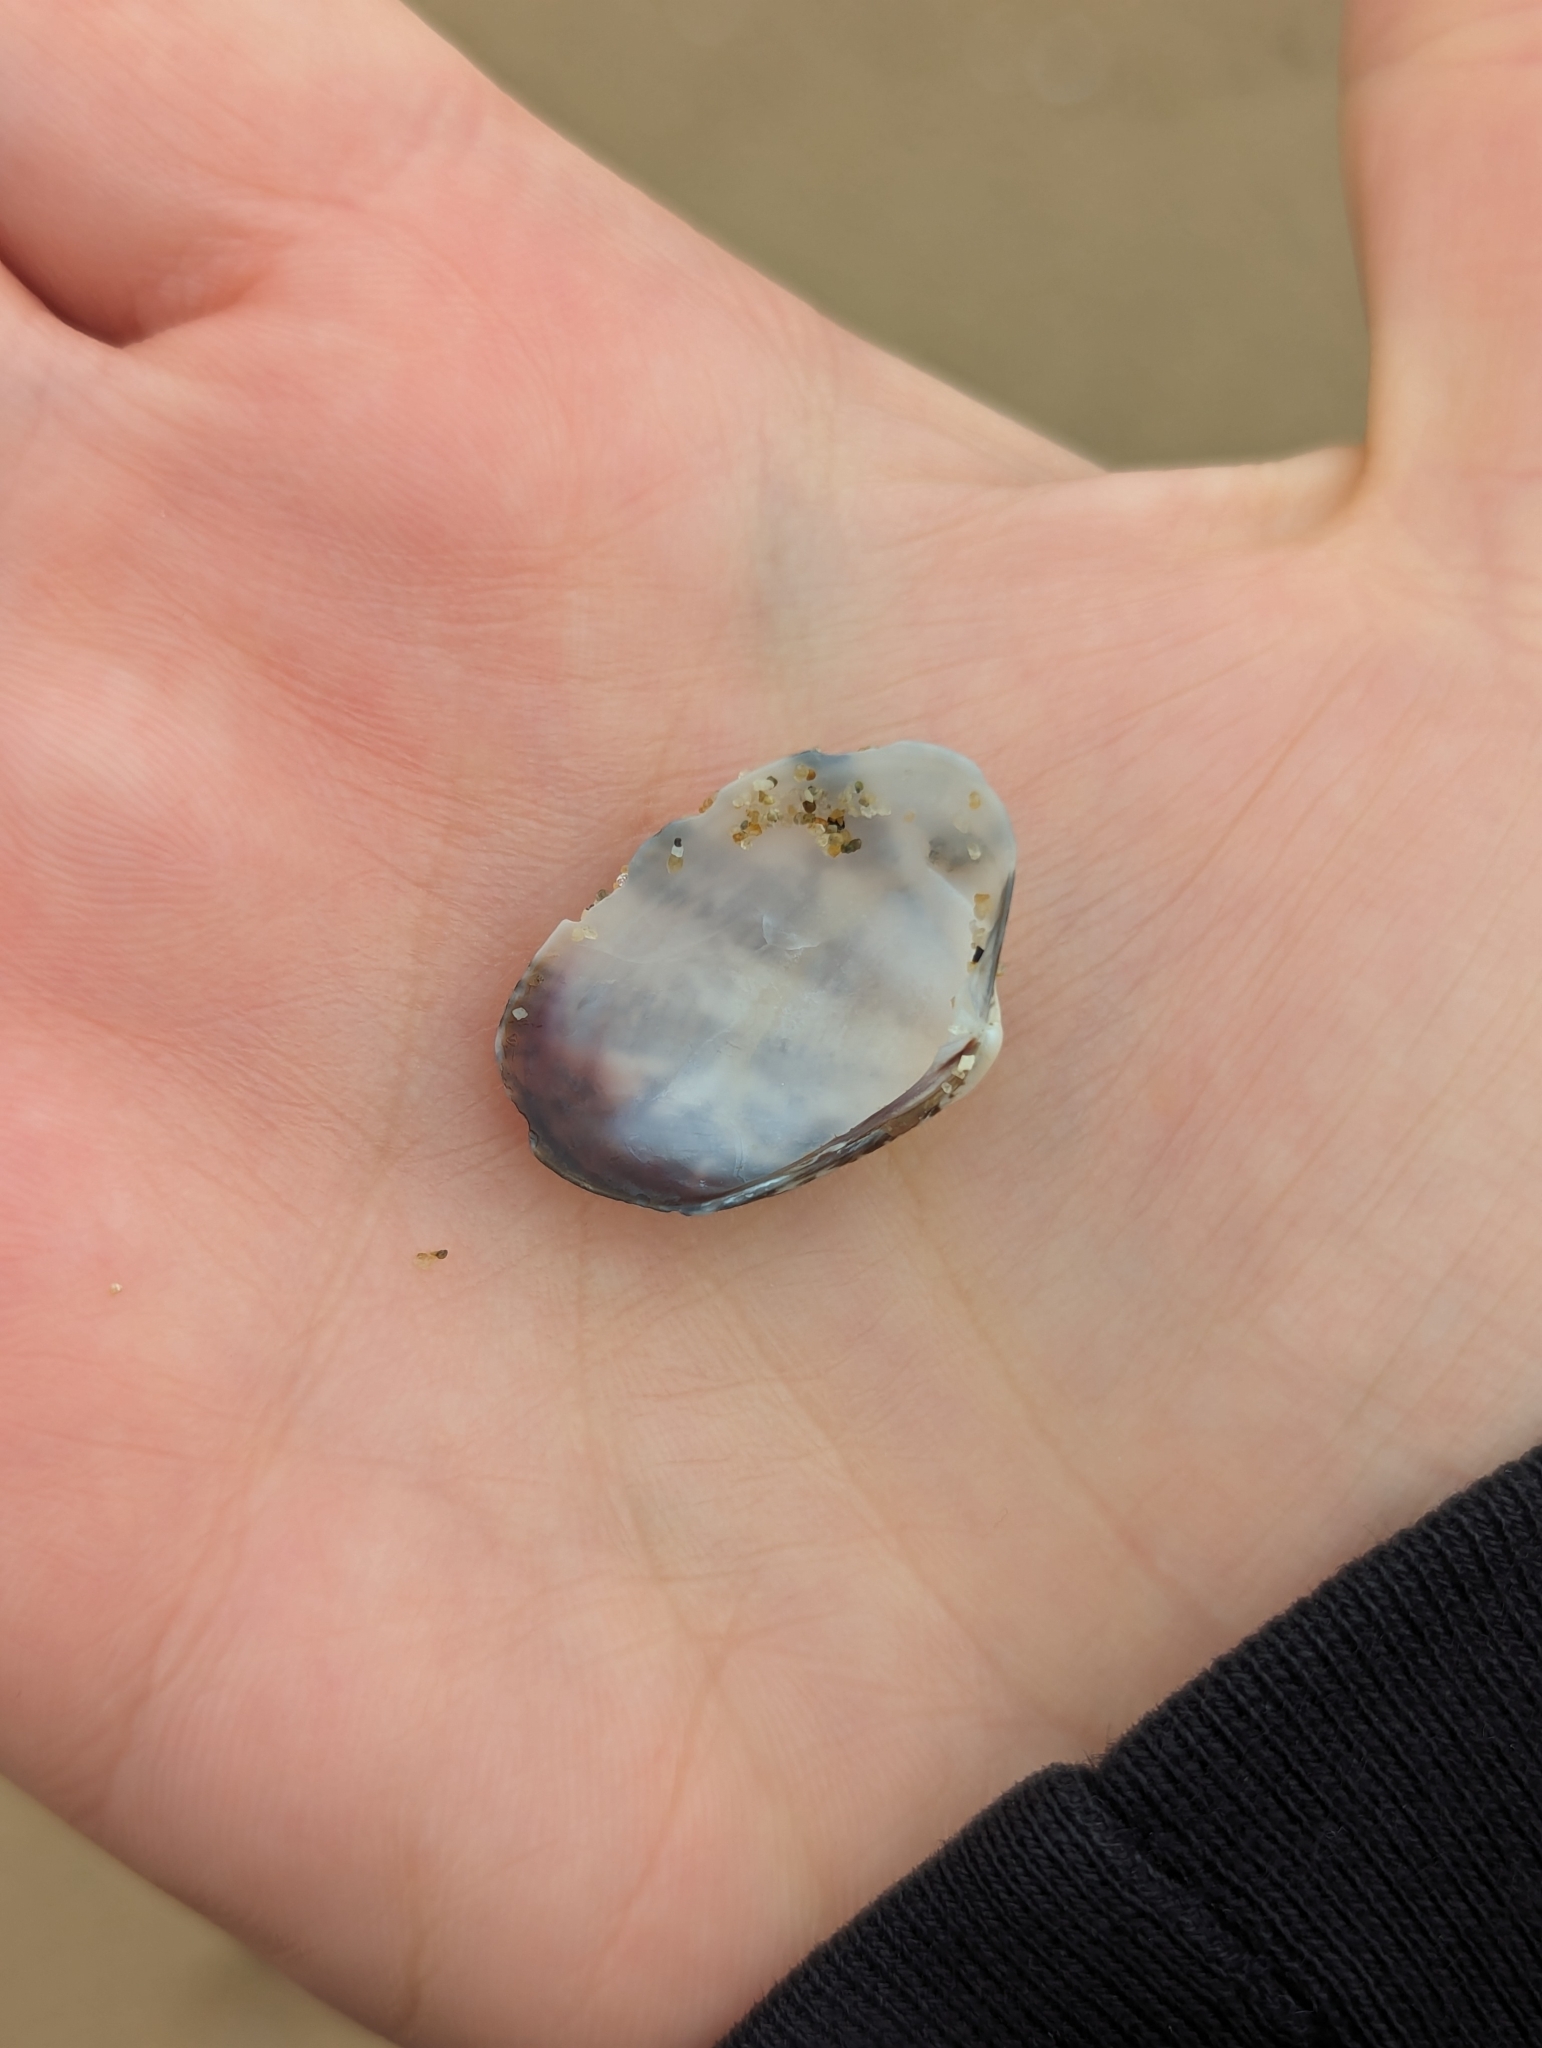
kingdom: Animalia
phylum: Mollusca
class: Bivalvia
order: Venerida
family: Veneridae
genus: Ruditapes
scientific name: Ruditapes philippinarum
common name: Manila clam
